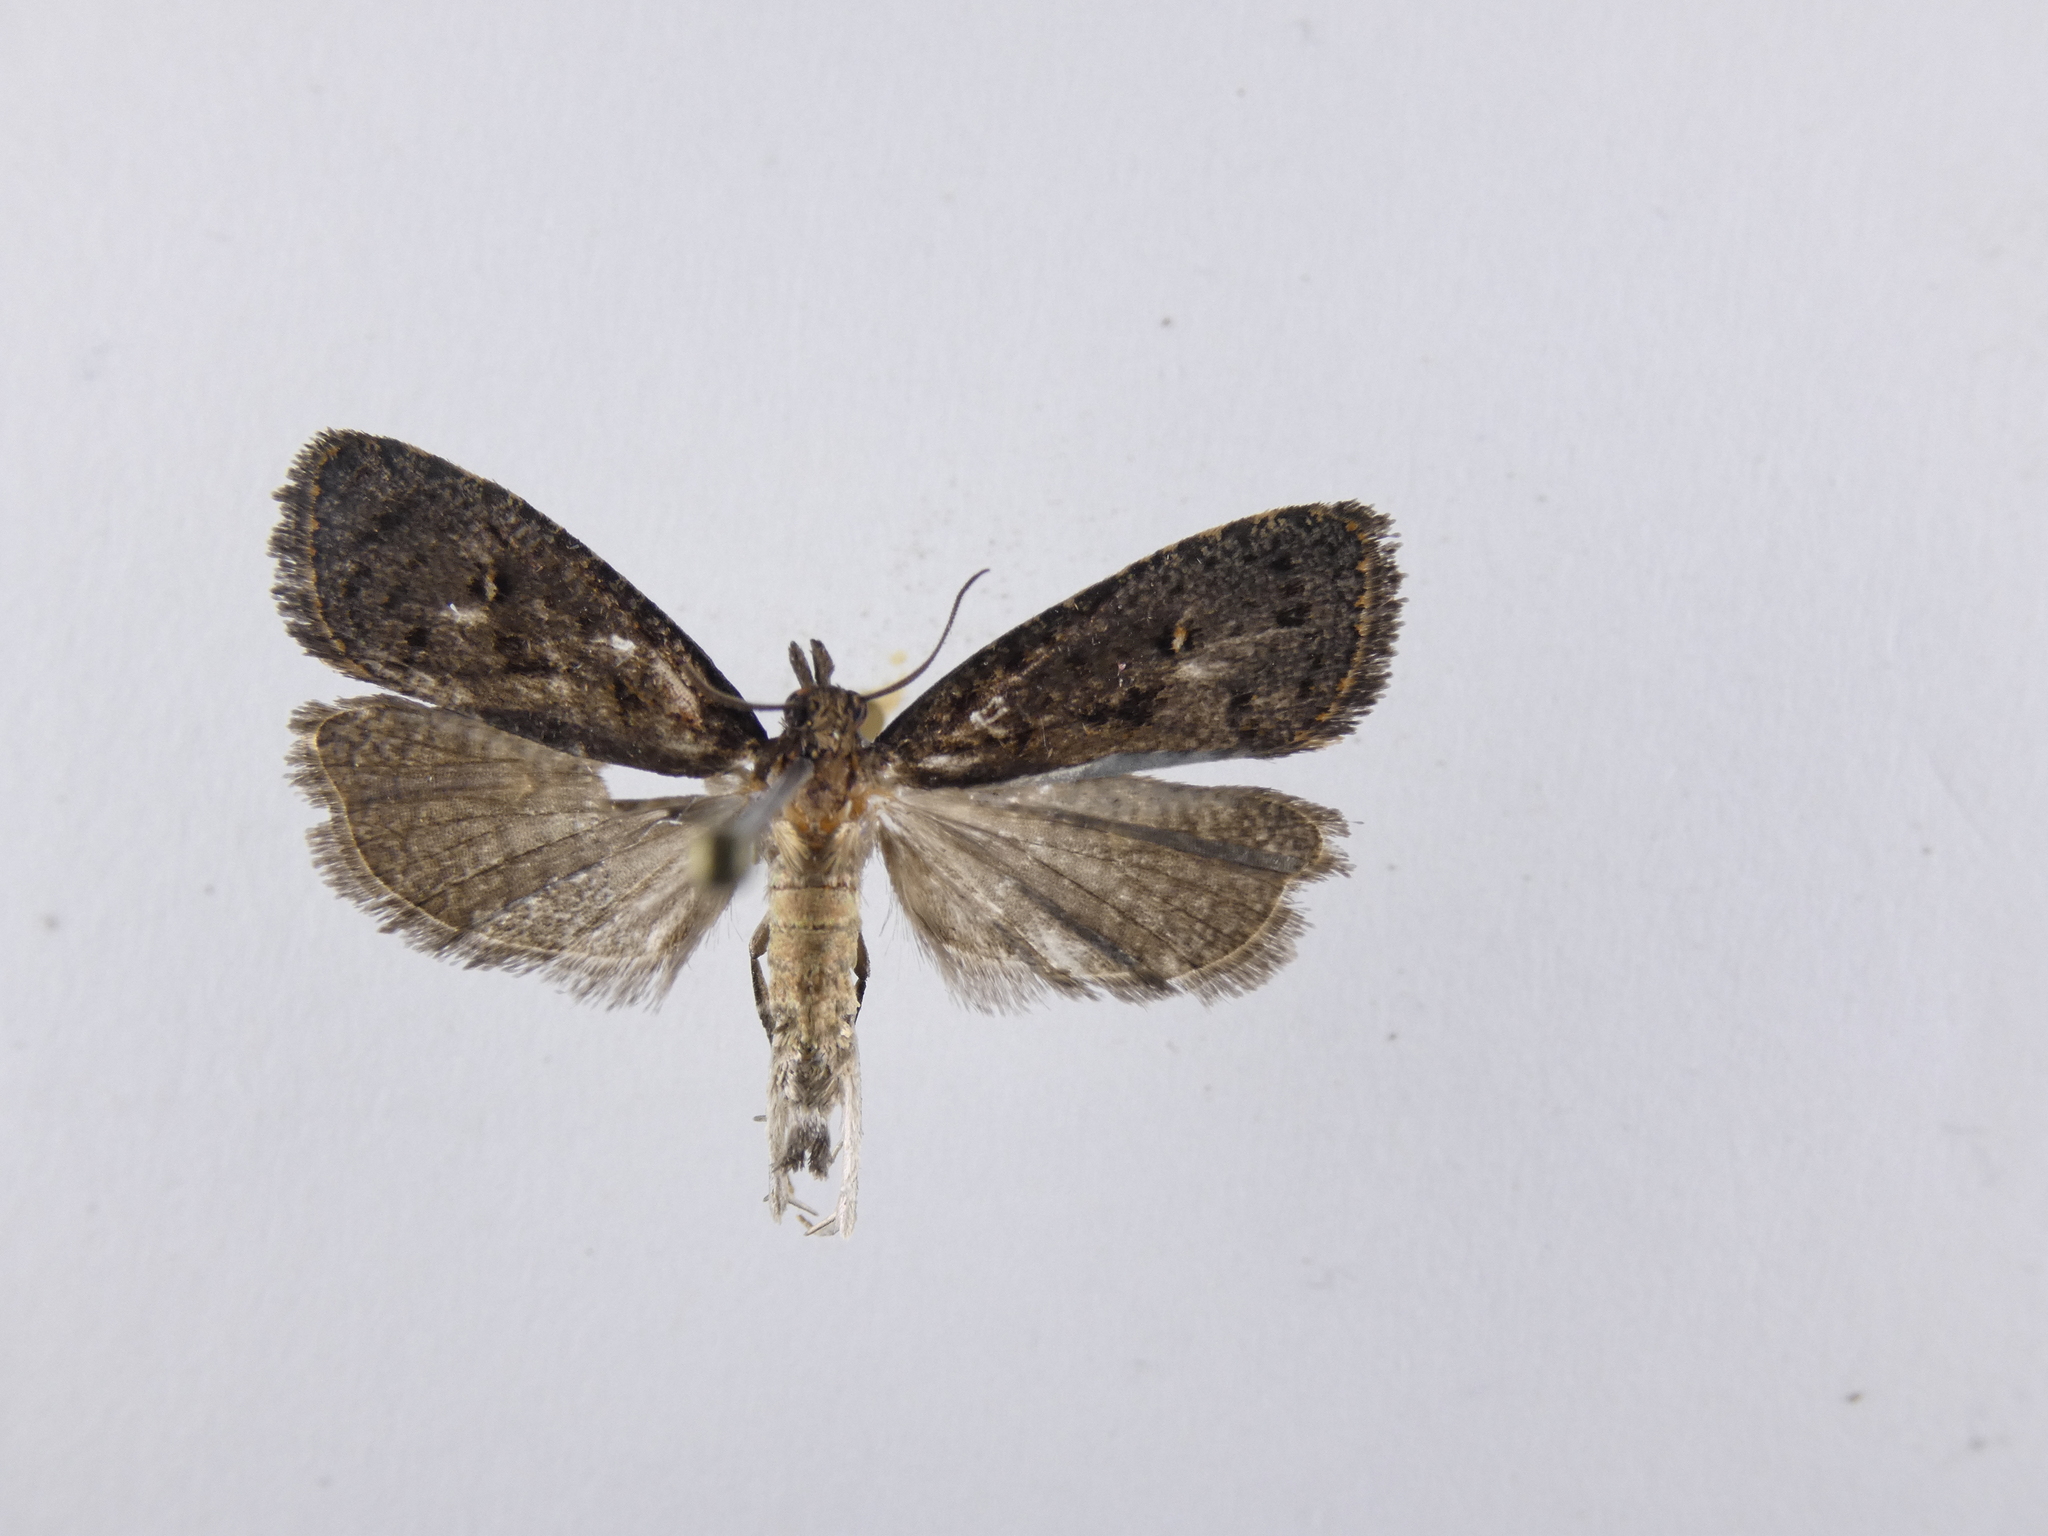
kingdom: Animalia
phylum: Arthropoda
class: Insecta
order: Lepidoptera
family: Tortricidae
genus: Cryptaspasma
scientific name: Cryptaspasma querula
